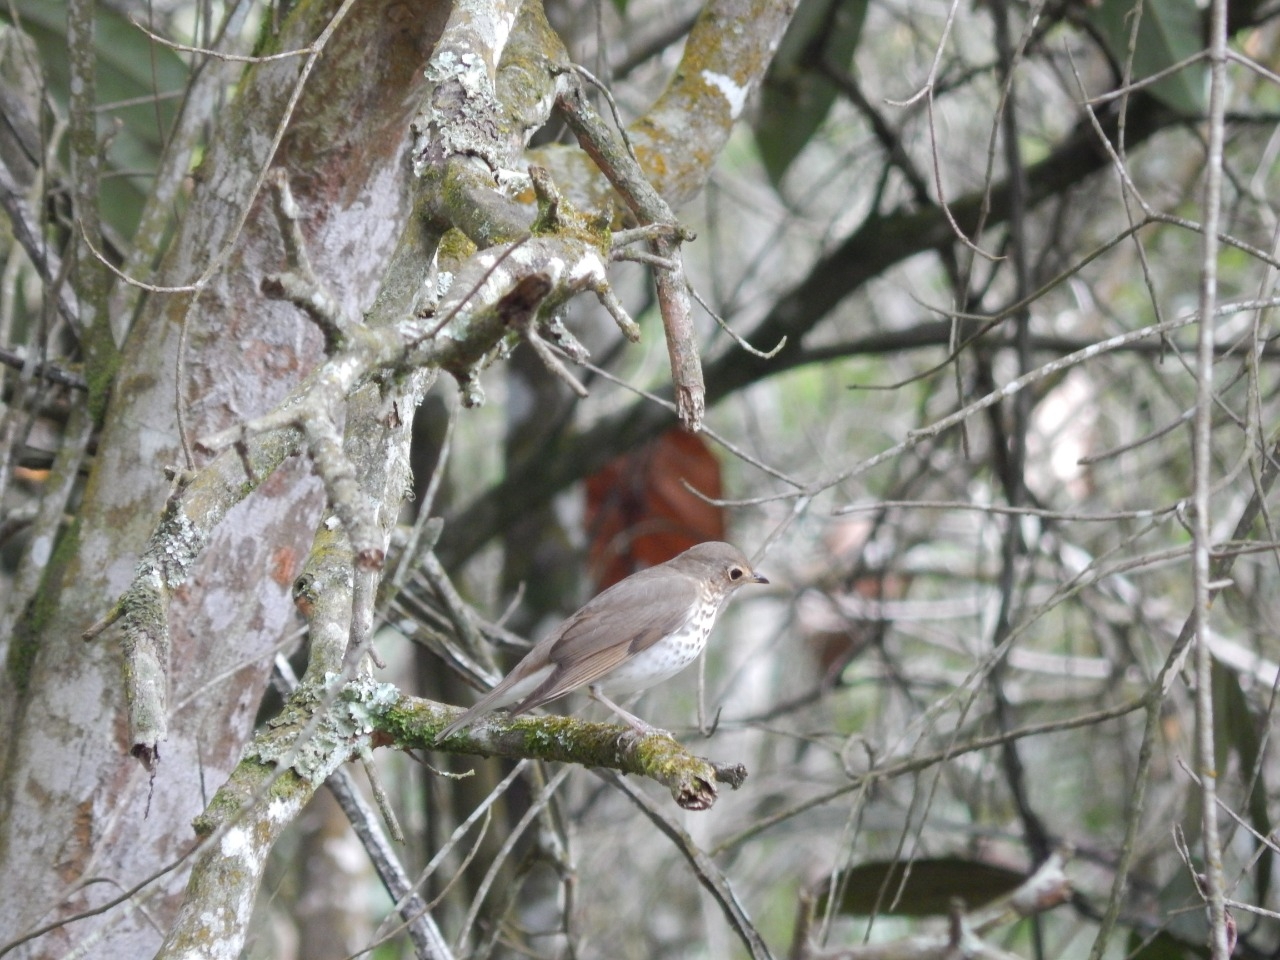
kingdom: Animalia
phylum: Chordata
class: Aves
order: Passeriformes
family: Turdidae
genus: Catharus
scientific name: Catharus ustulatus
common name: Swainson's thrush
